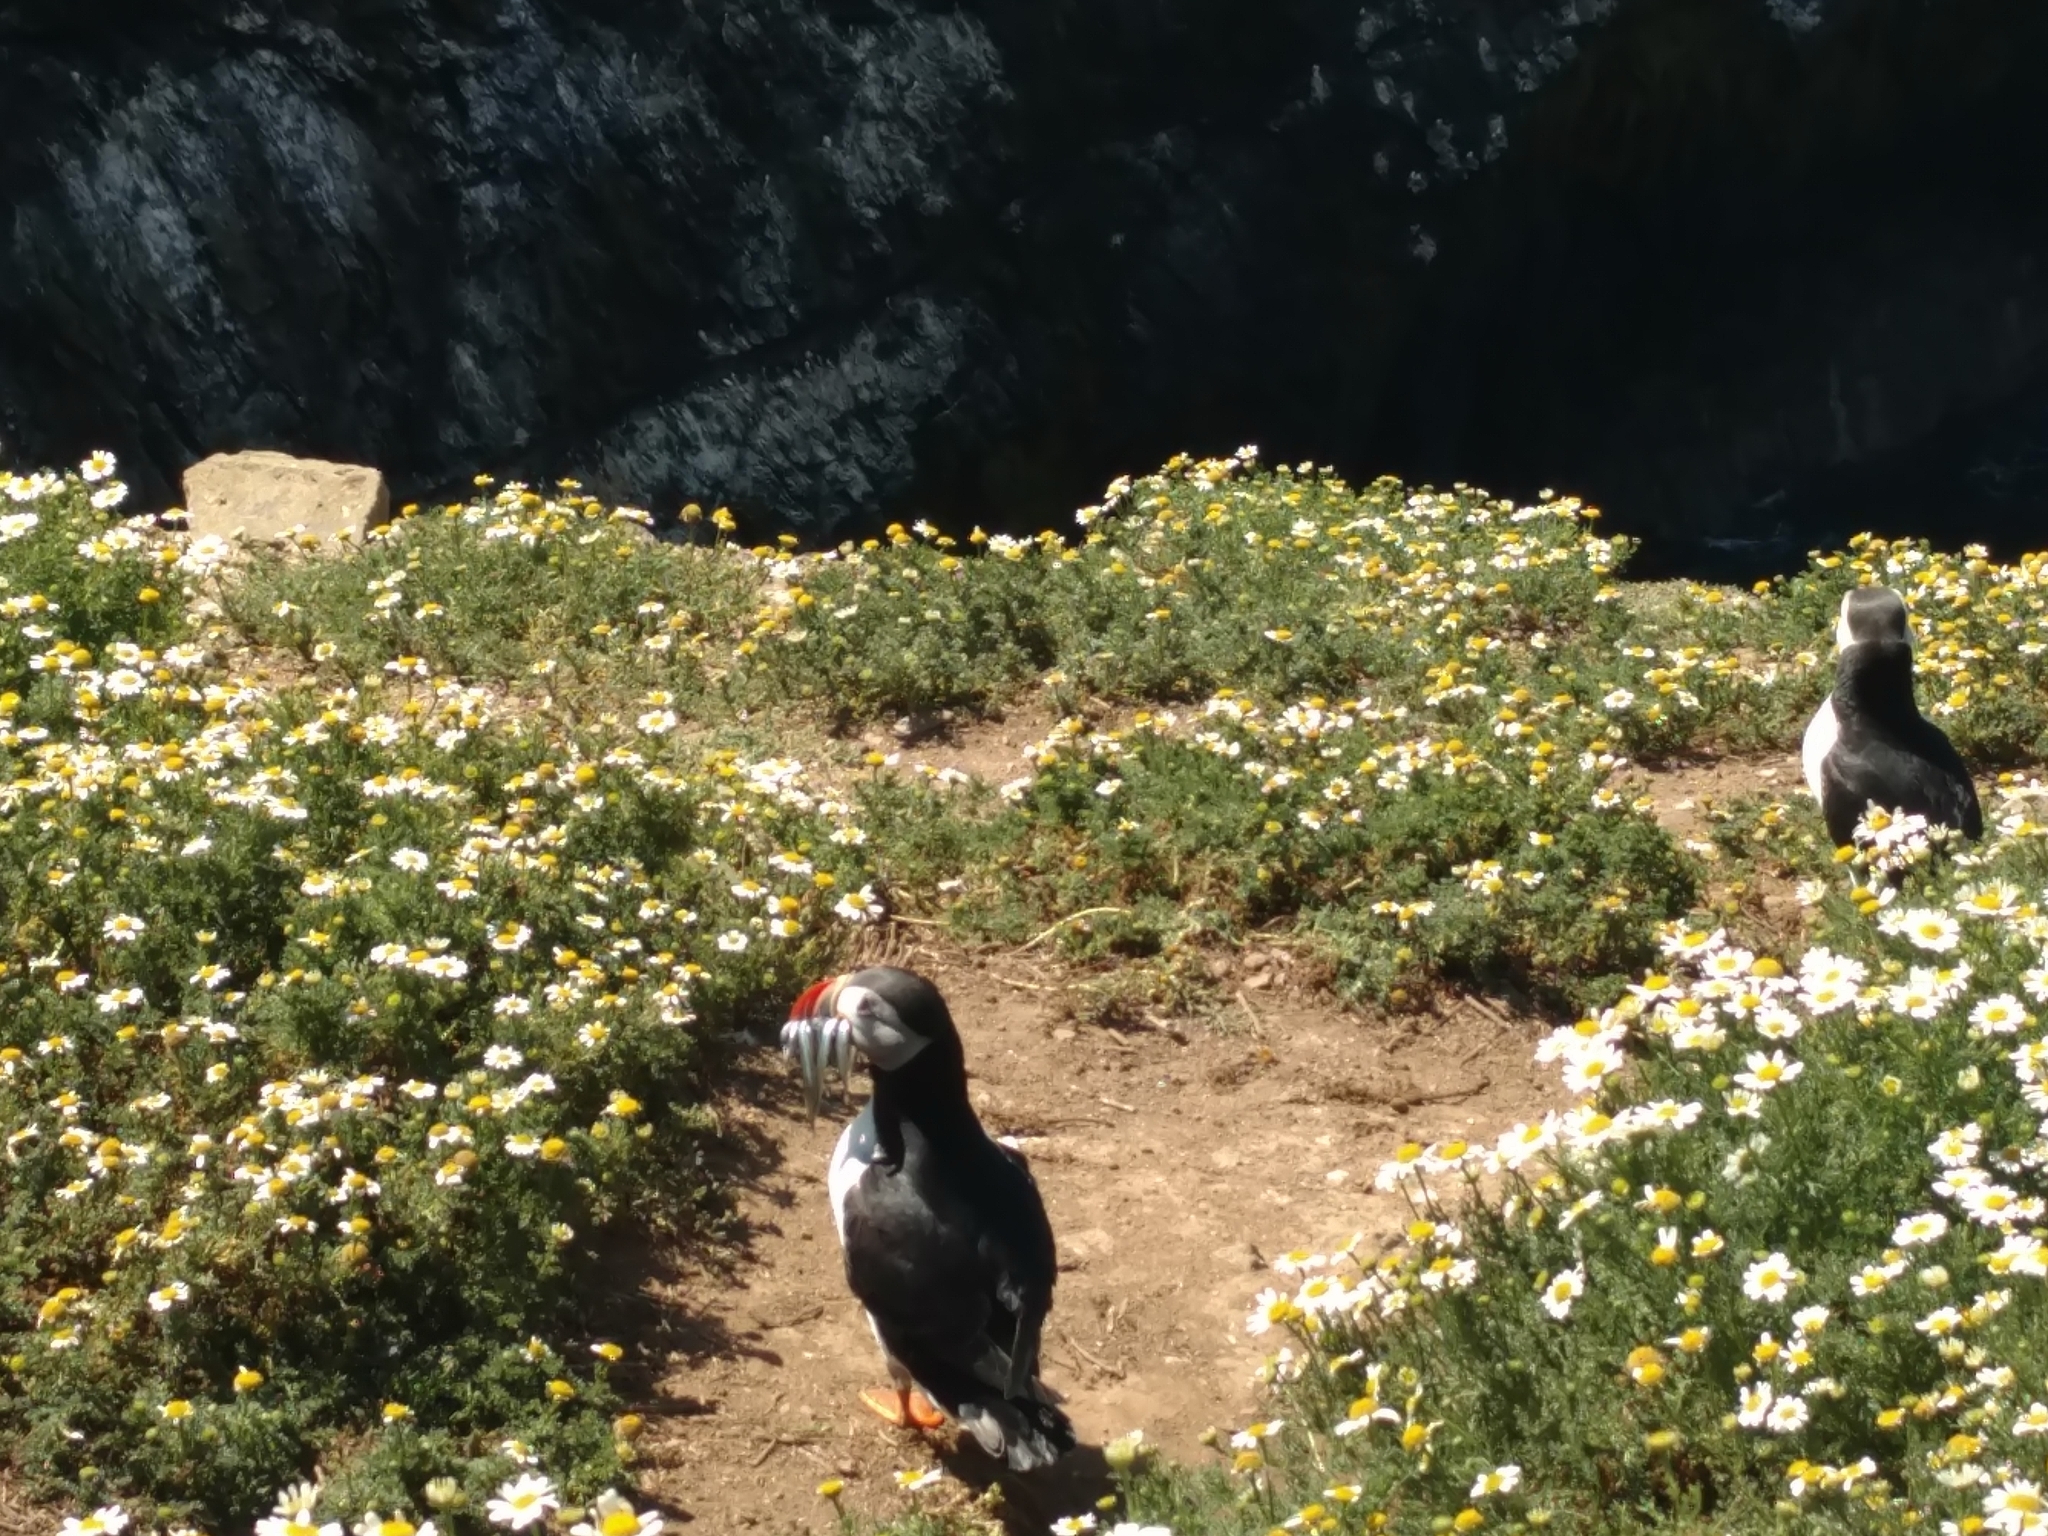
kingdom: Animalia
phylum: Chordata
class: Aves
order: Charadriiformes
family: Alcidae
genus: Fratercula
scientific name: Fratercula arctica
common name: Atlantic puffin
